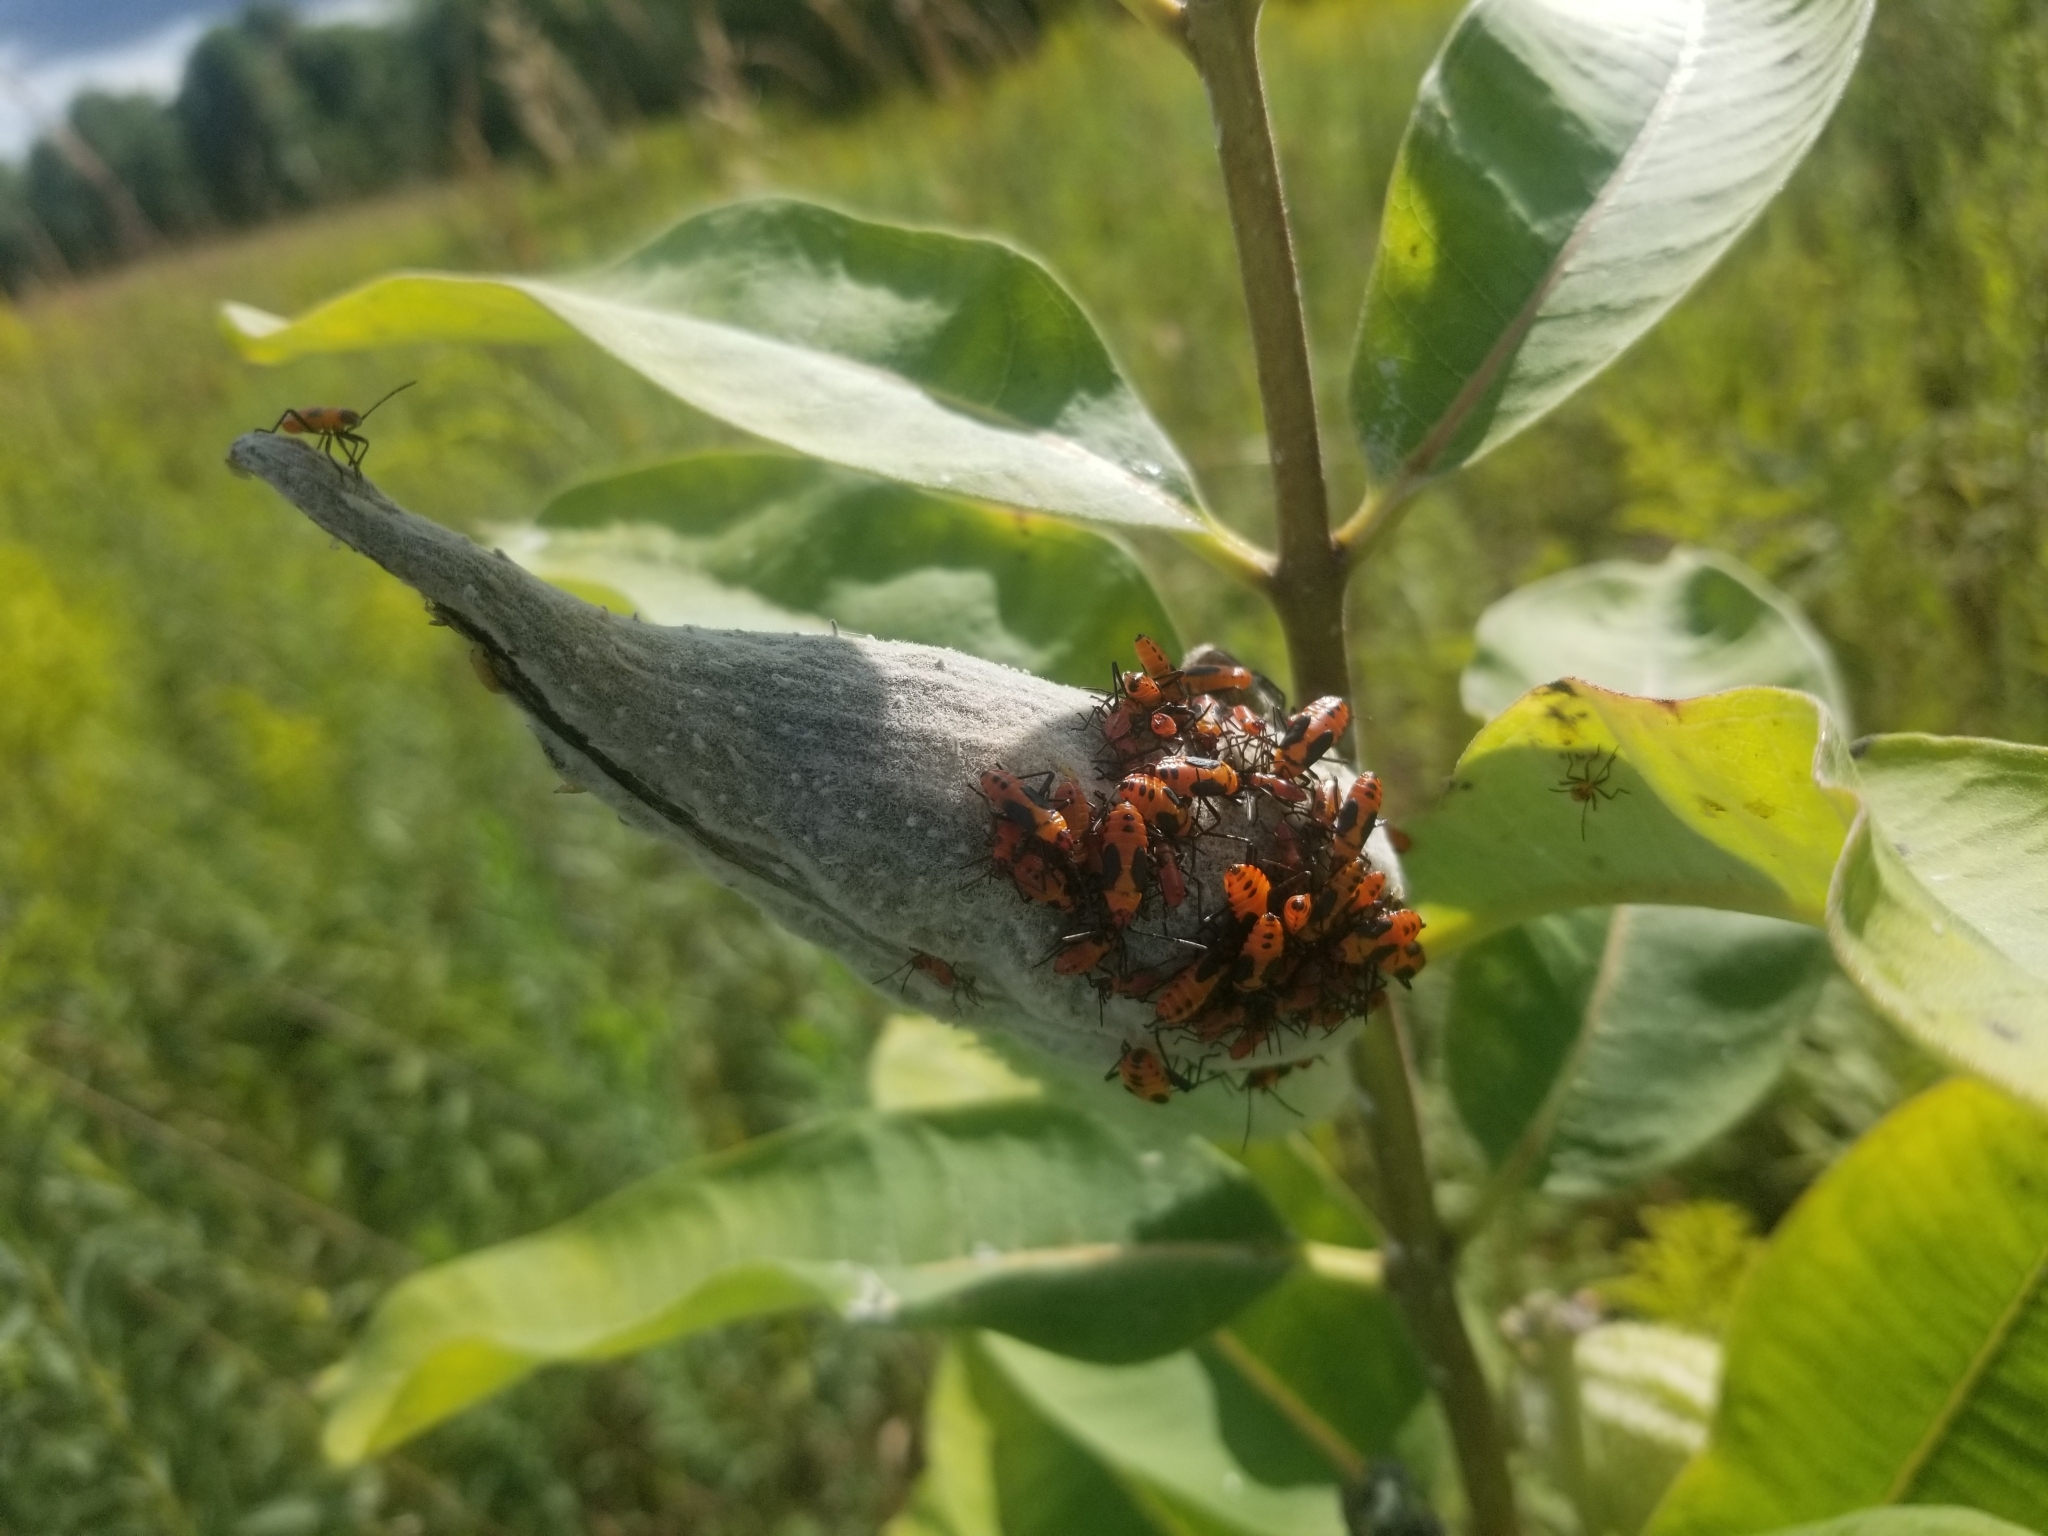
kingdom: Animalia
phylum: Arthropoda
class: Insecta
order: Hemiptera
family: Lygaeidae
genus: Oncopeltus
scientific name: Oncopeltus fasciatus
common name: Large milkweed bug
